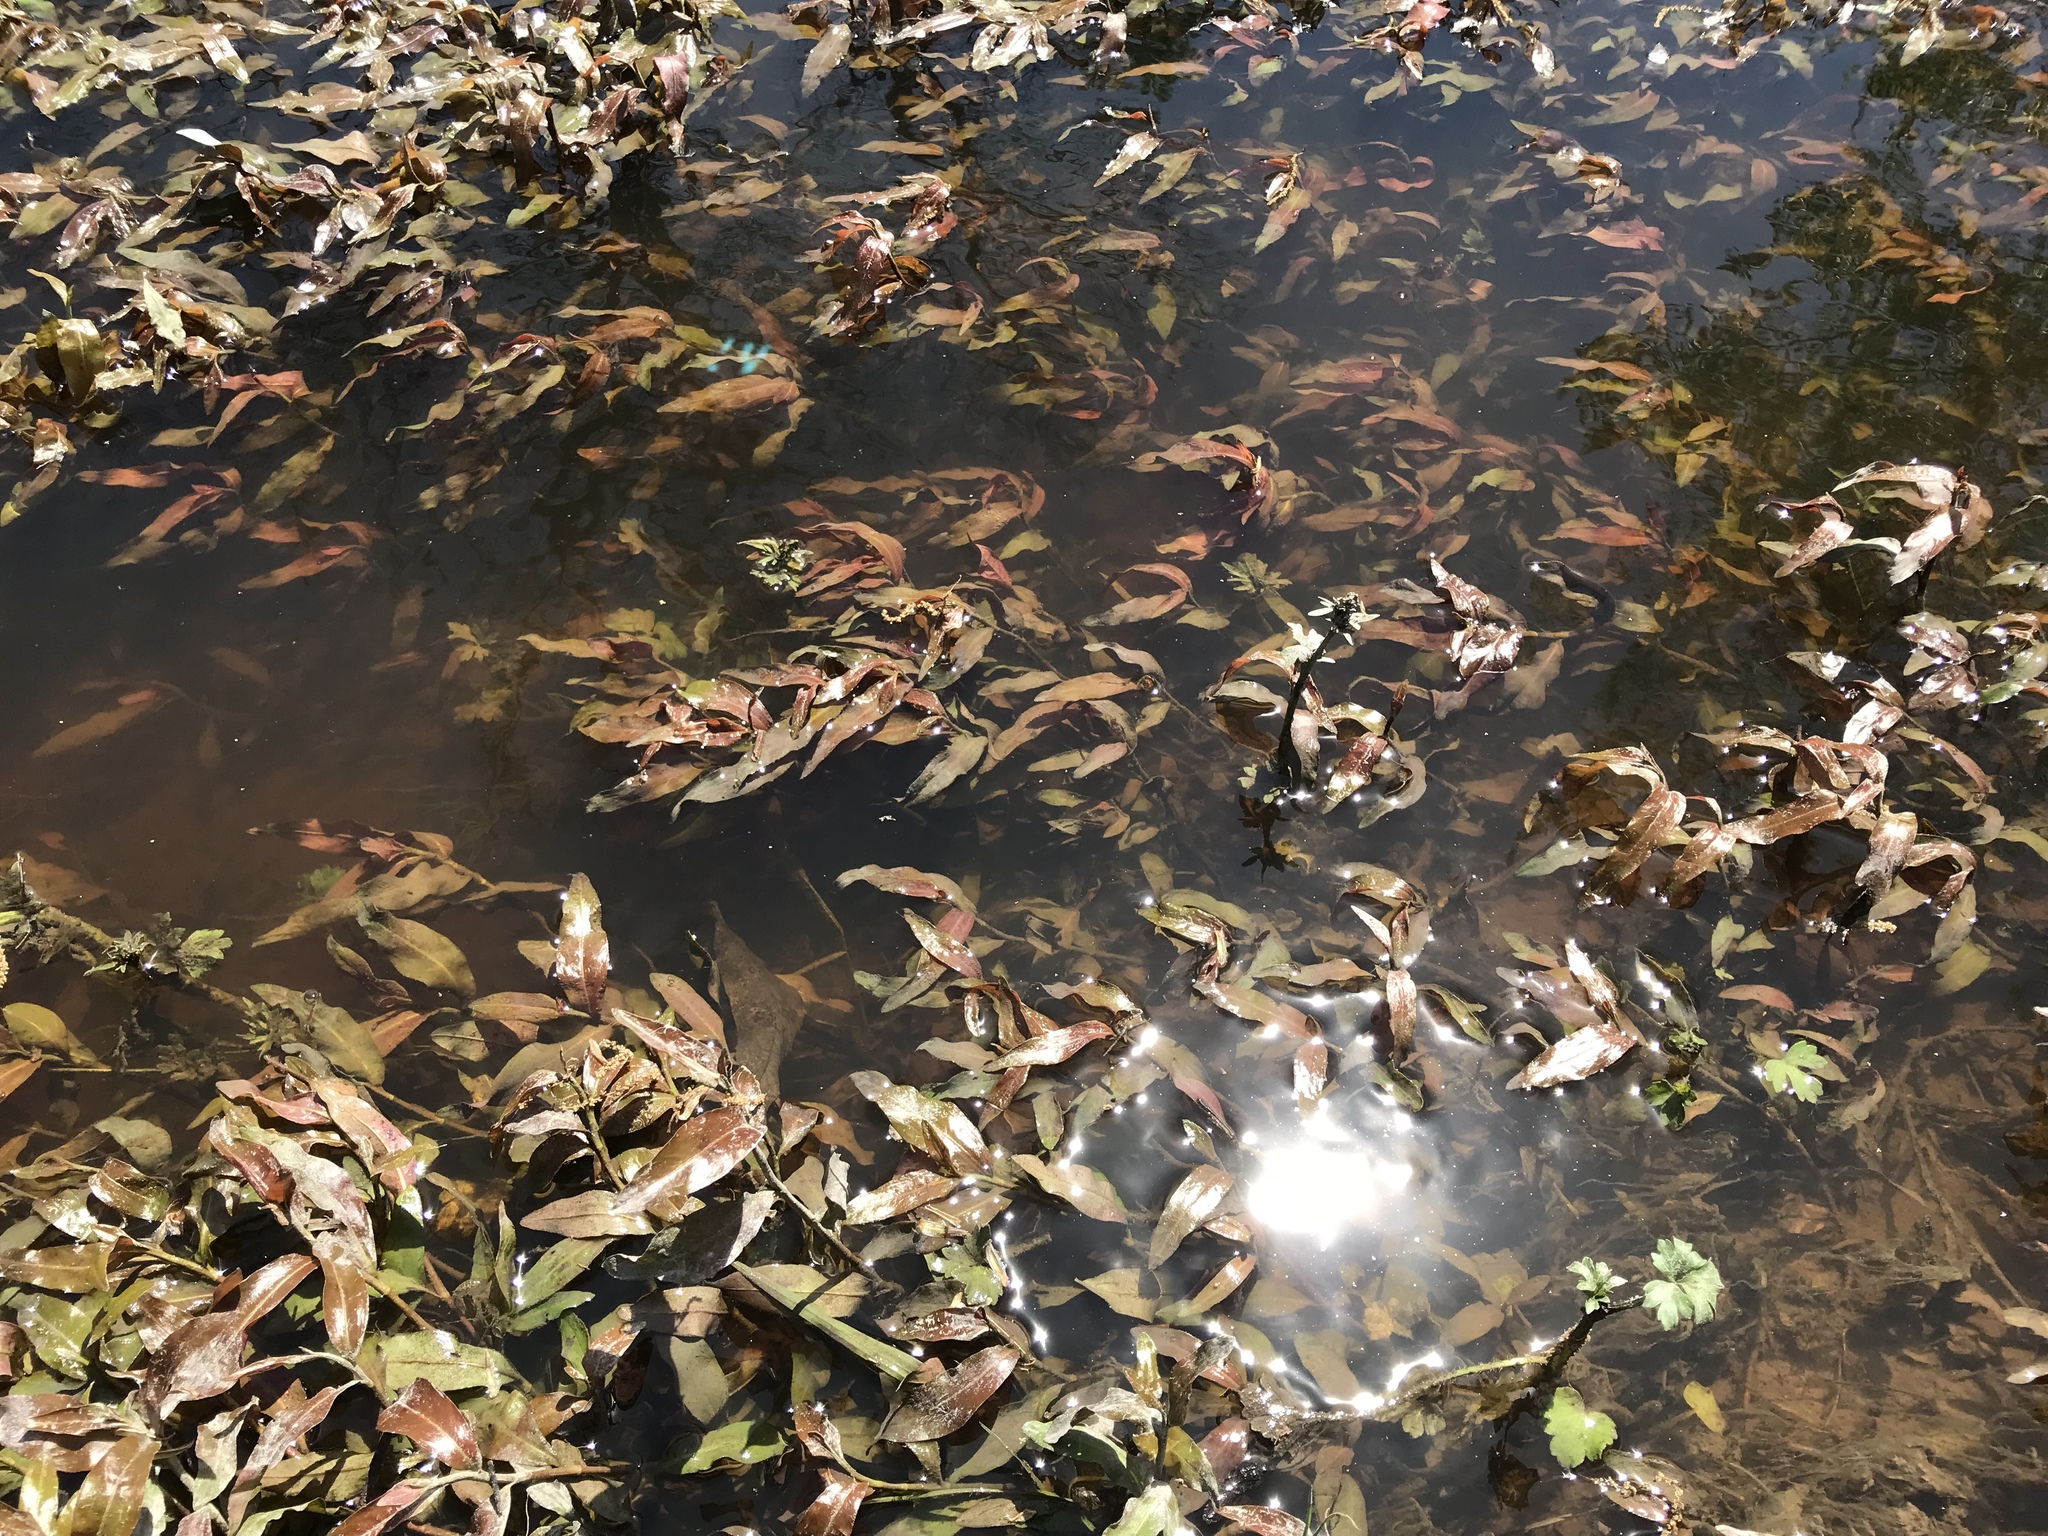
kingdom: Plantae
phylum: Tracheophyta
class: Magnoliopsida
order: Caryophyllales
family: Polygonaceae
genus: Persicaria
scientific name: Persicaria amphibia
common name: Amphibious bistort
